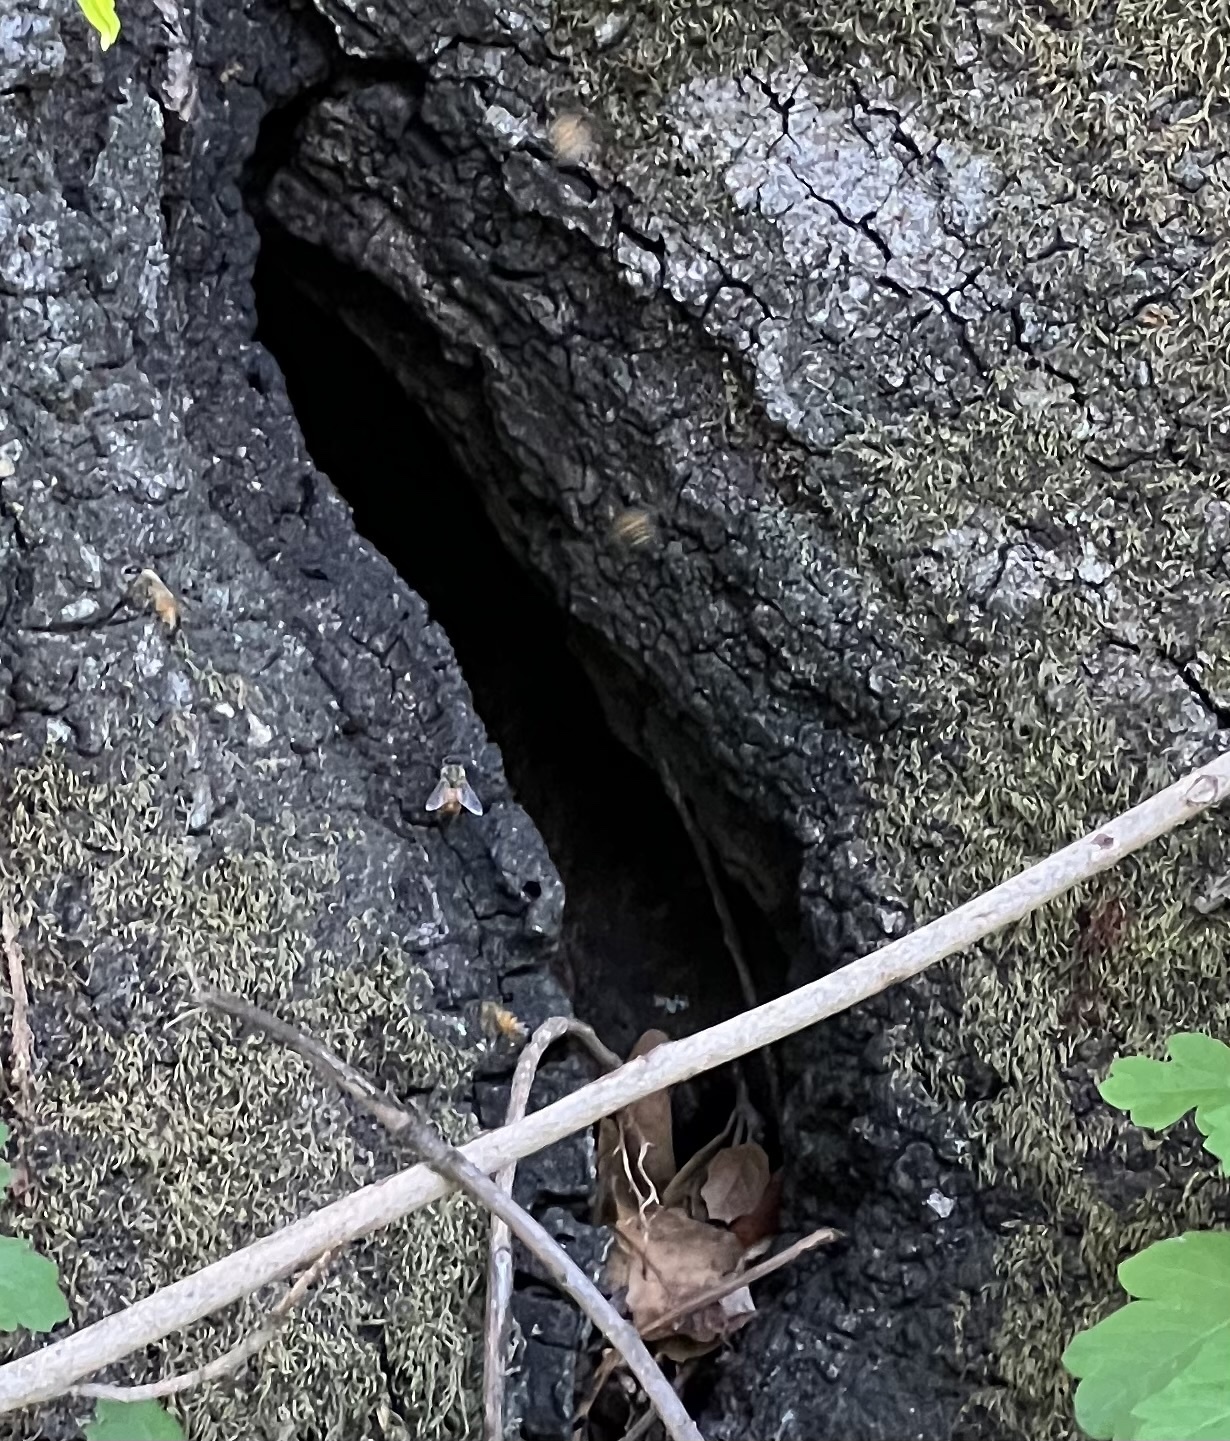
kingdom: Animalia
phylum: Arthropoda
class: Insecta
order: Hymenoptera
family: Apidae
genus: Apis
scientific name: Apis mellifera
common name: Honey bee
